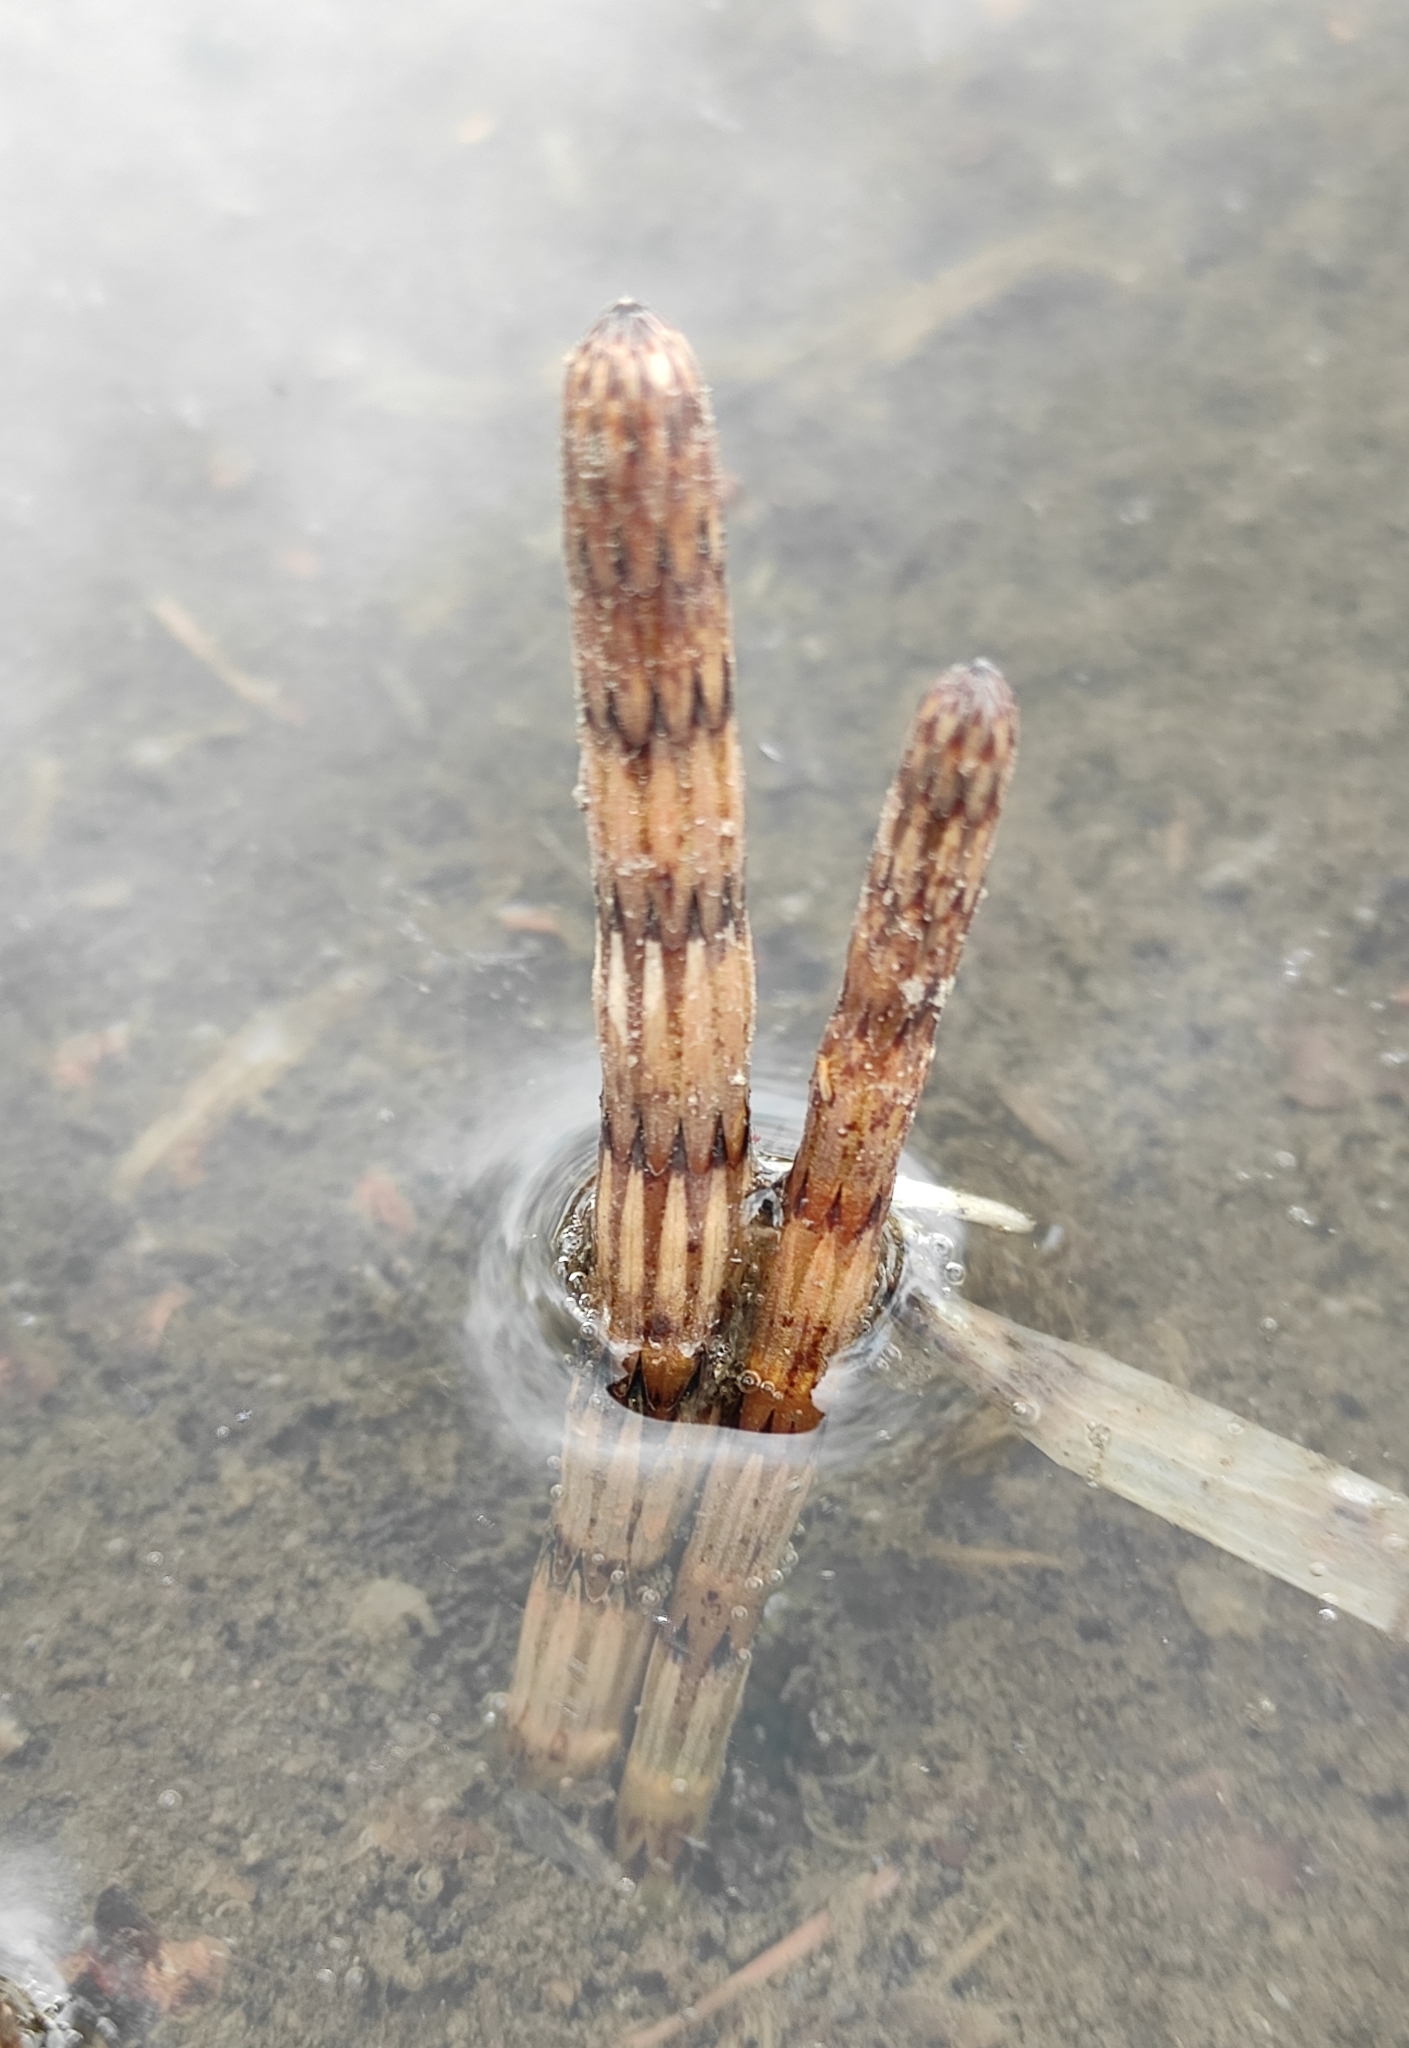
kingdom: Plantae
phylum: Tracheophyta
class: Polypodiopsida
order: Equisetales
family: Equisetaceae
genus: Equisetum
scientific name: Equisetum fluviatile
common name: Water horsetail
